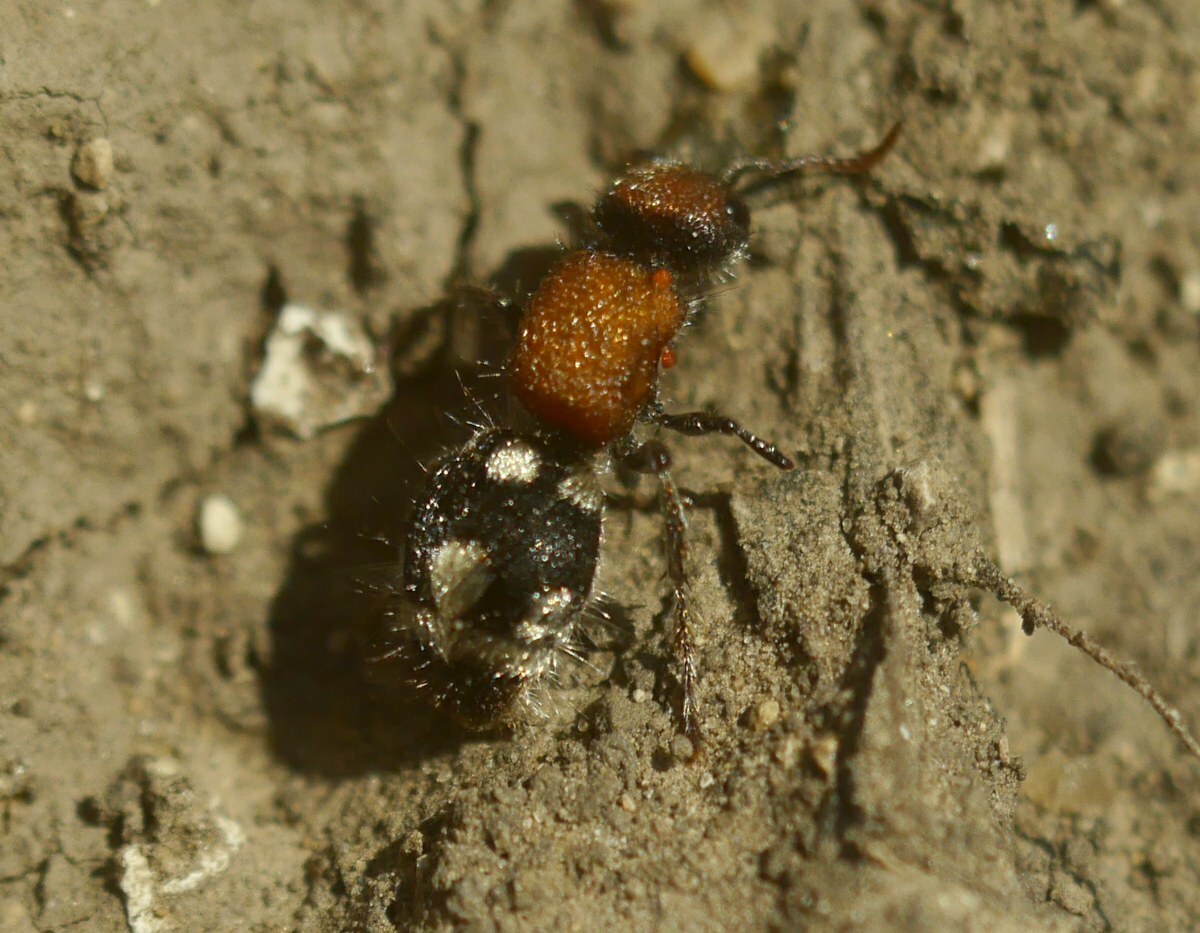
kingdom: Animalia
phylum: Arthropoda
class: Insecta
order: Hymenoptera
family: Mutillidae
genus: Ronisia
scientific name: Ronisia brutia
